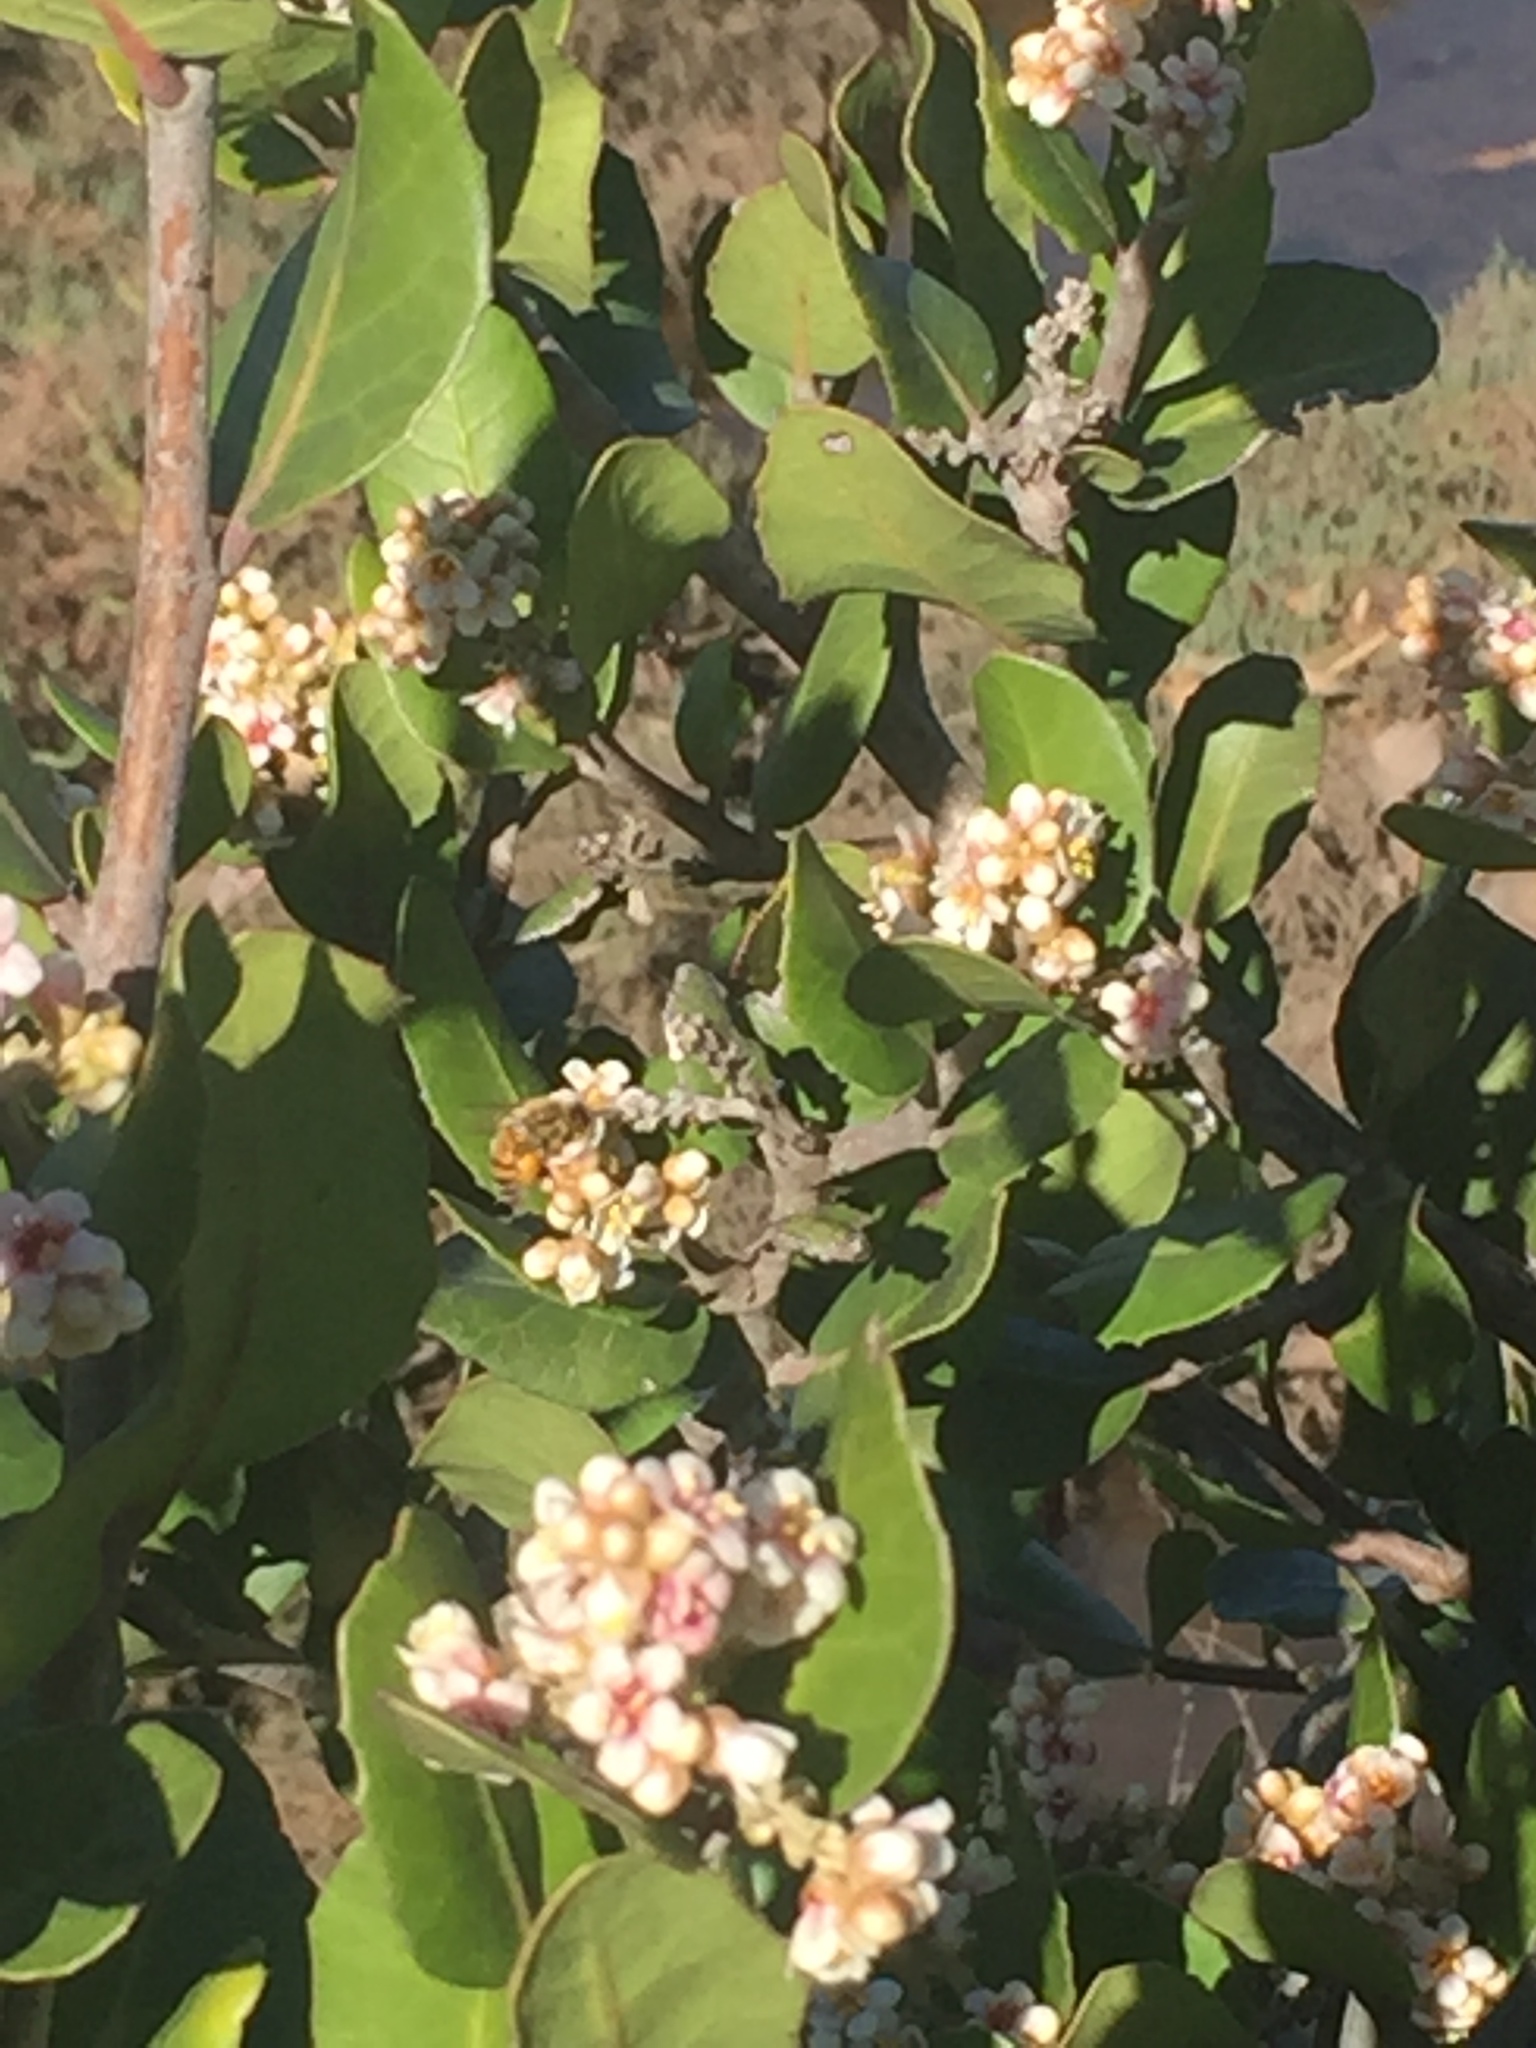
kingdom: Plantae
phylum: Tracheophyta
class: Magnoliopsida
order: Sapindales
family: Anacardiaceae
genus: Rhus
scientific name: Rhus integrifolia
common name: Lemonade sumac
